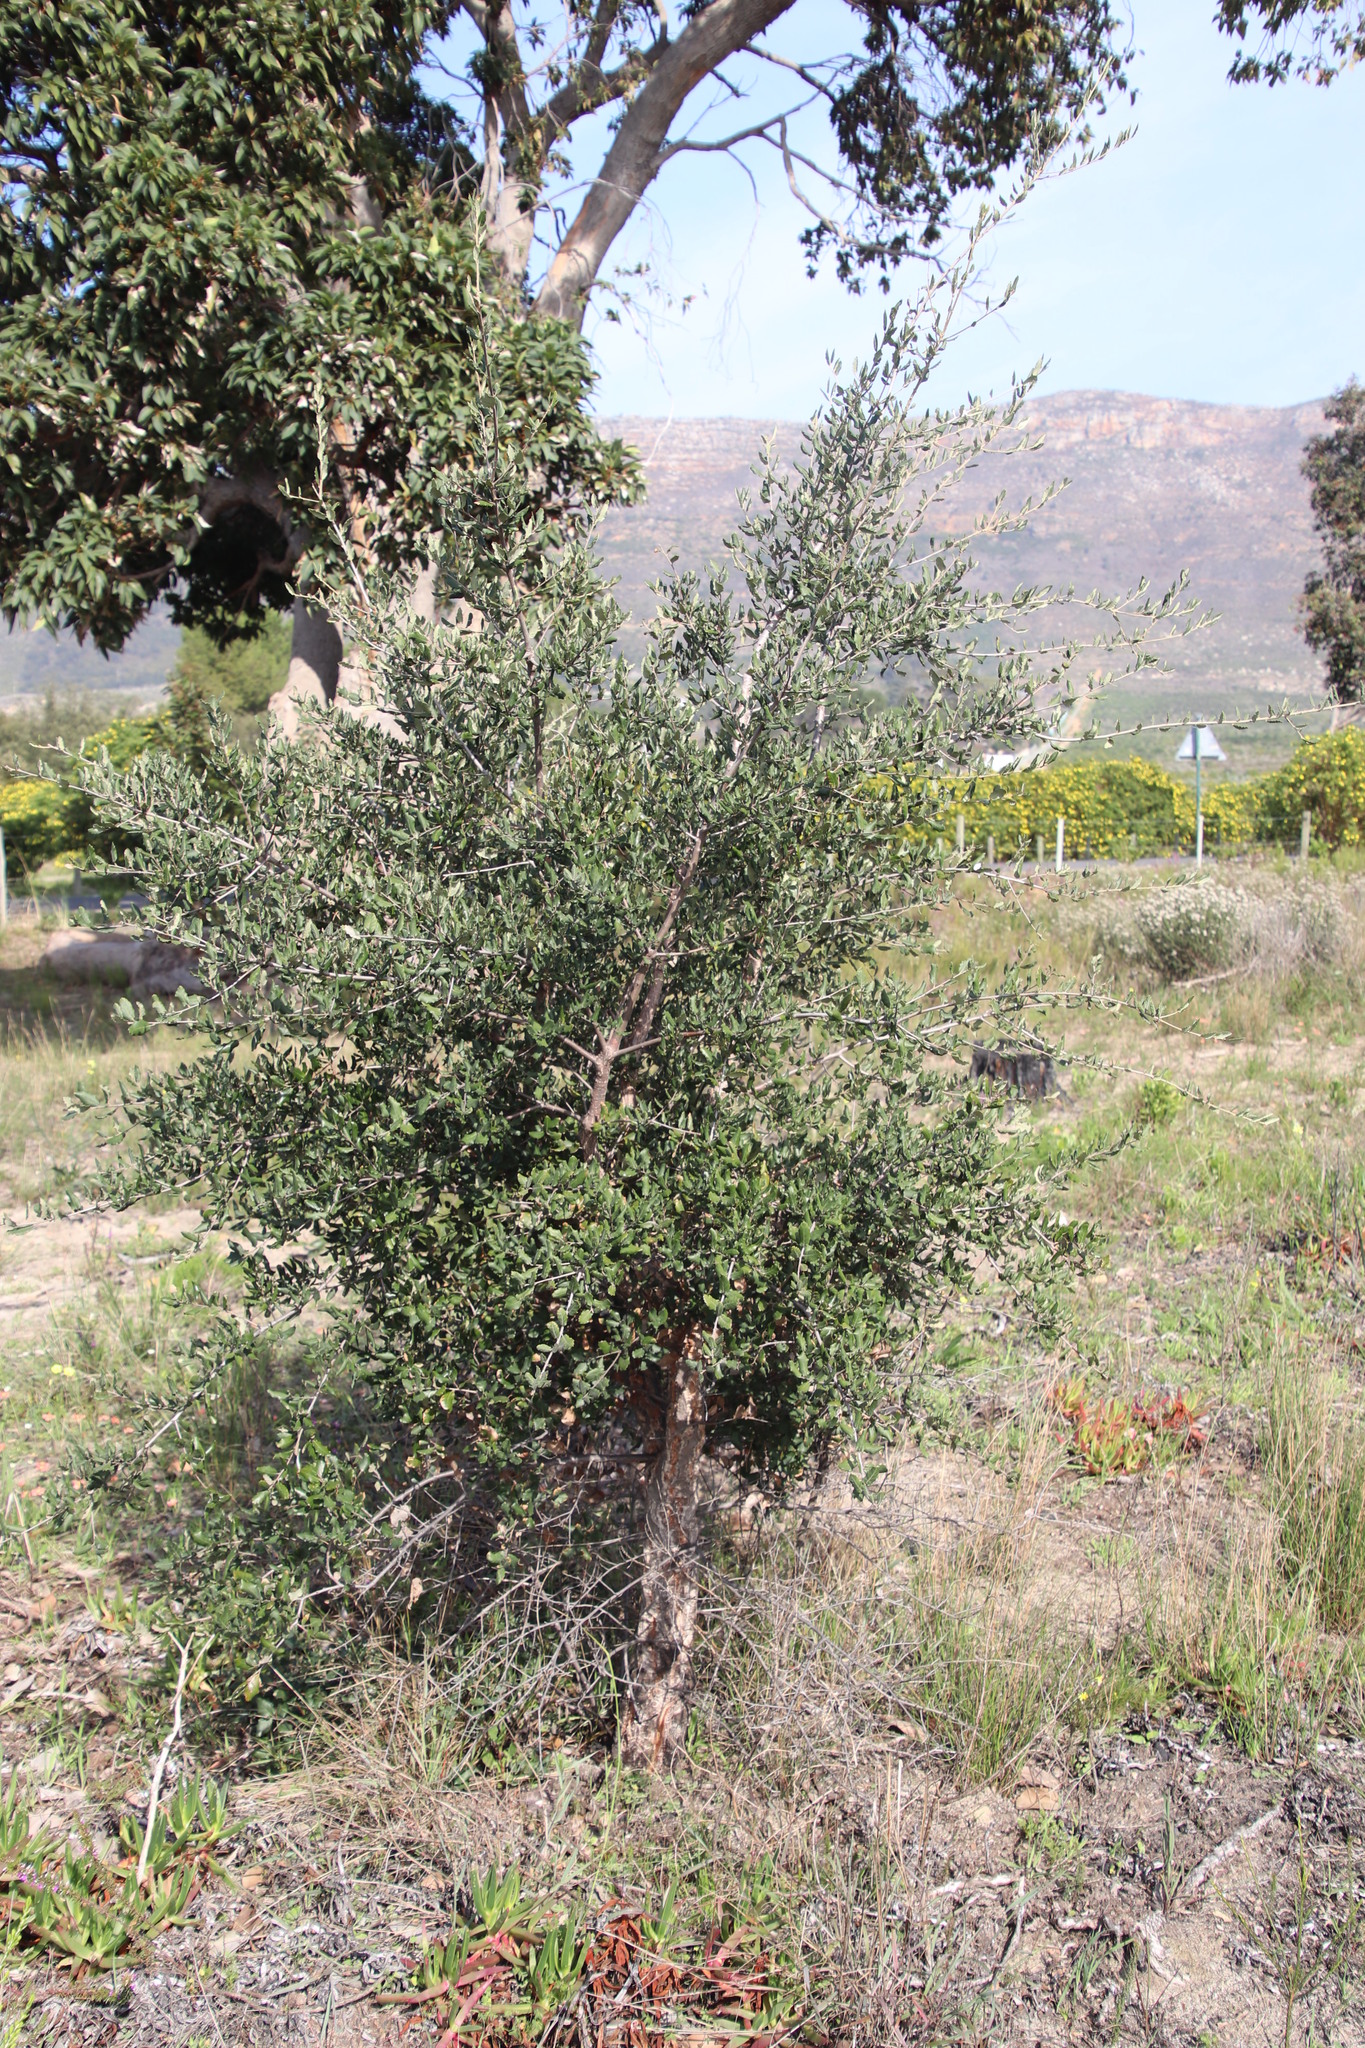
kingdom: Plantae
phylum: Tracheophyta
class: Magnoliopsida
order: Fagales
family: Fagaceae
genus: Quercus
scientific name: Quercus suber
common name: Cork oak
